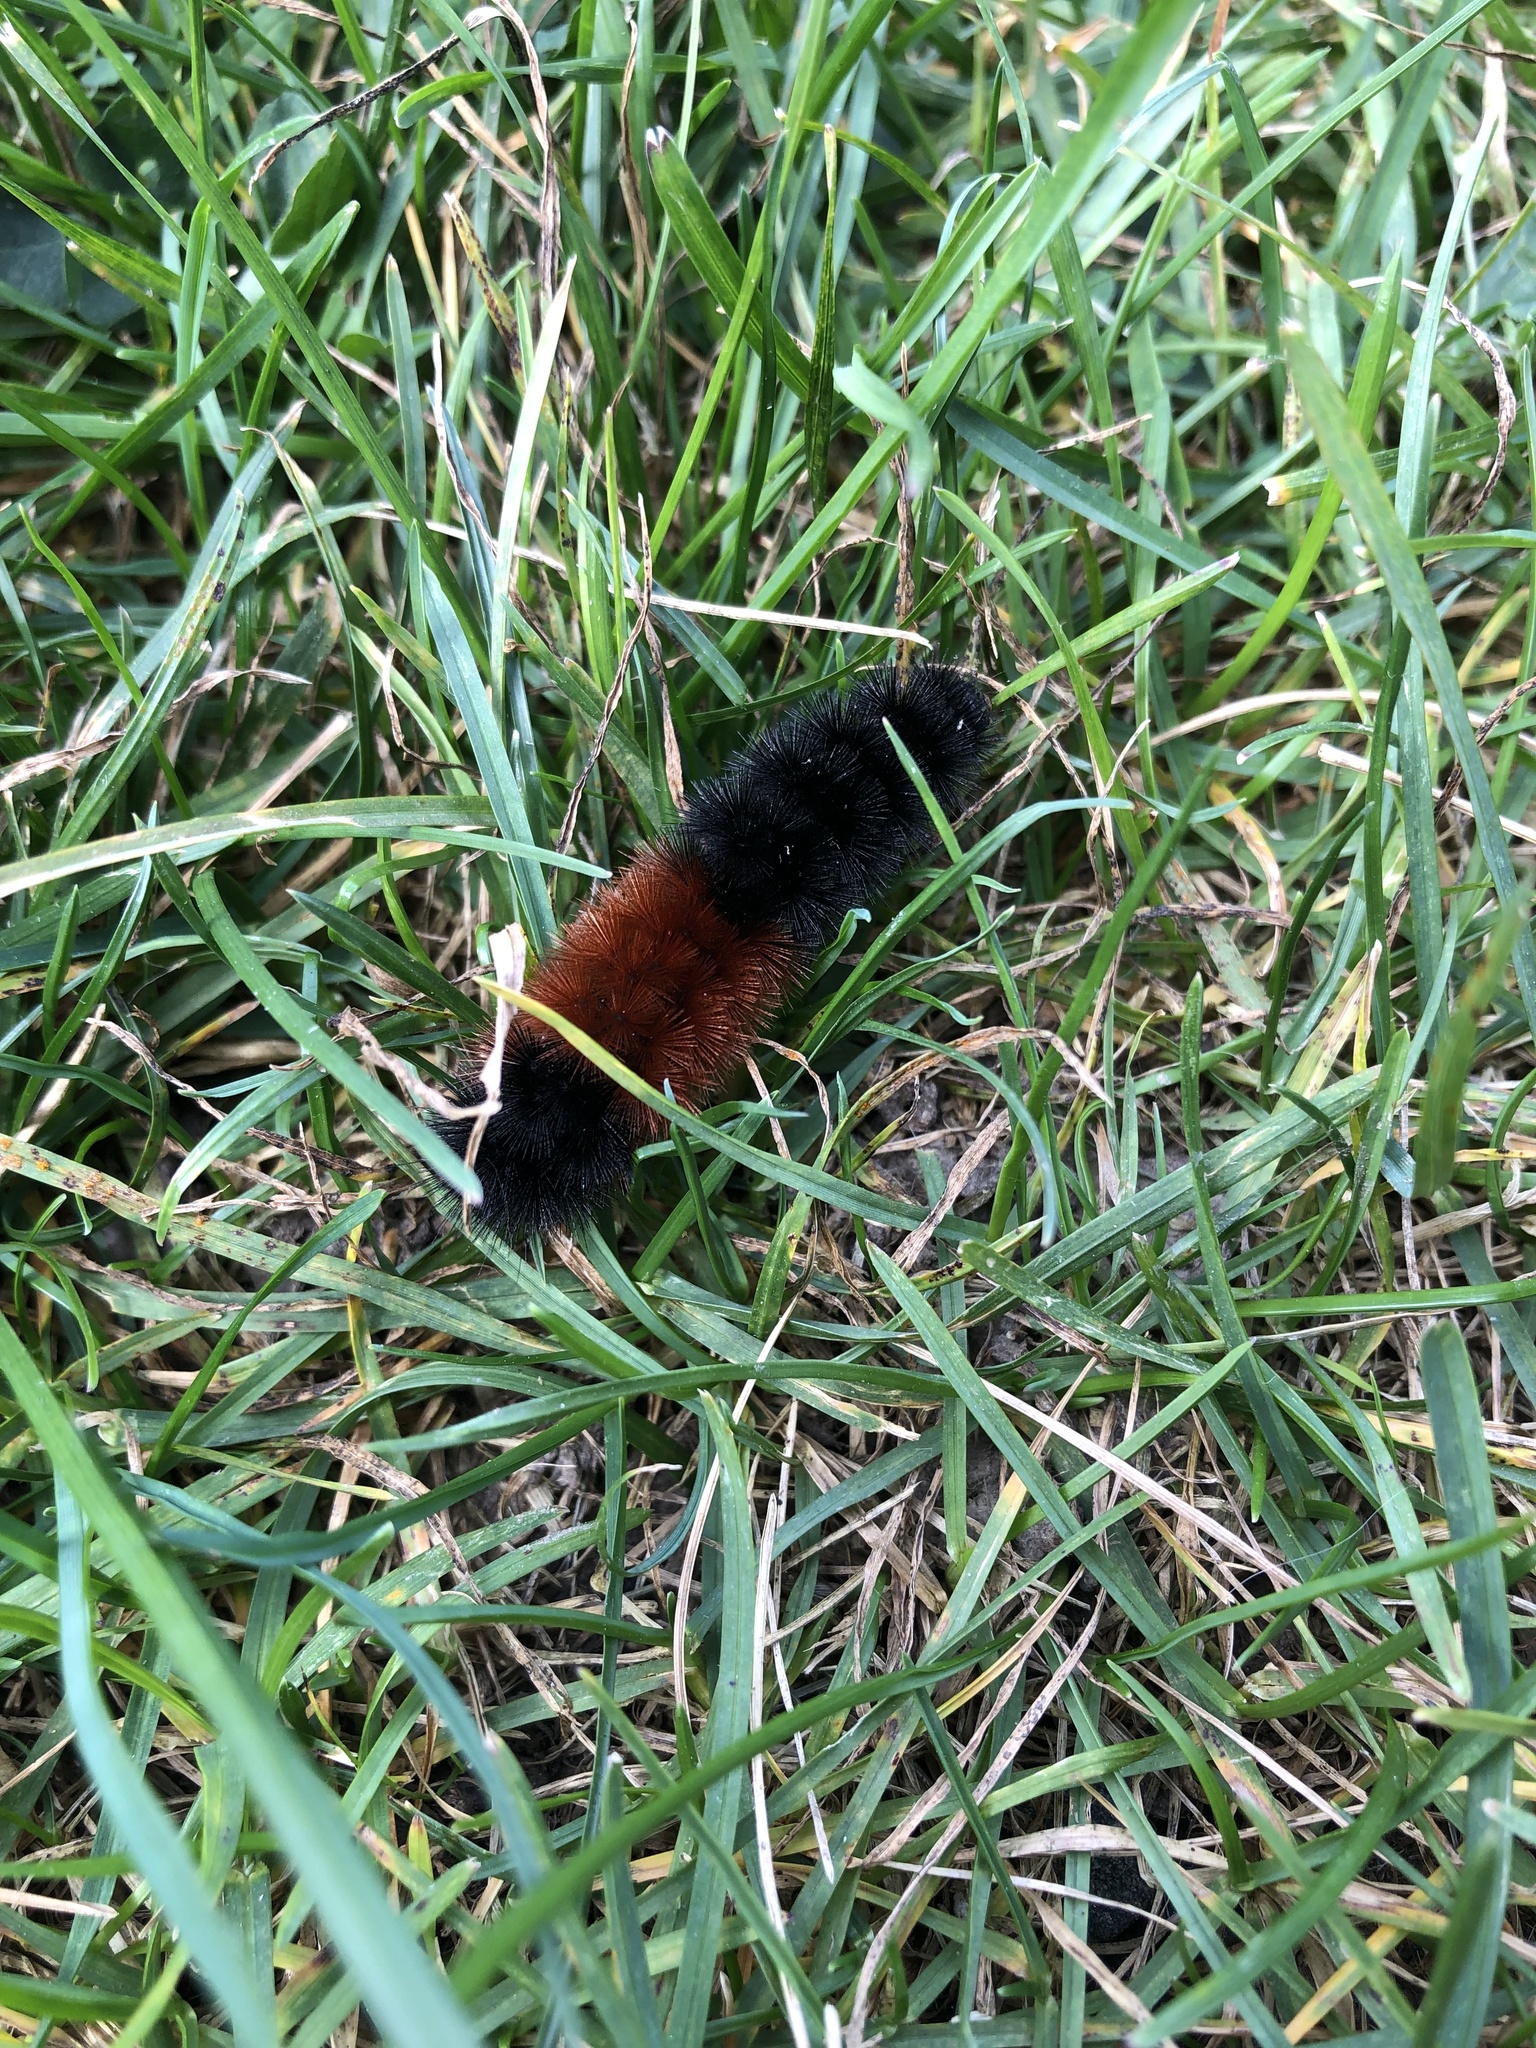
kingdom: Animalia
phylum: Arthropoda
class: Insecta
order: Lepidoptera
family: Erebidae
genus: Pyrrharctia
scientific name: Pyrrharctia isabella
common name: Isabella tiger moth
